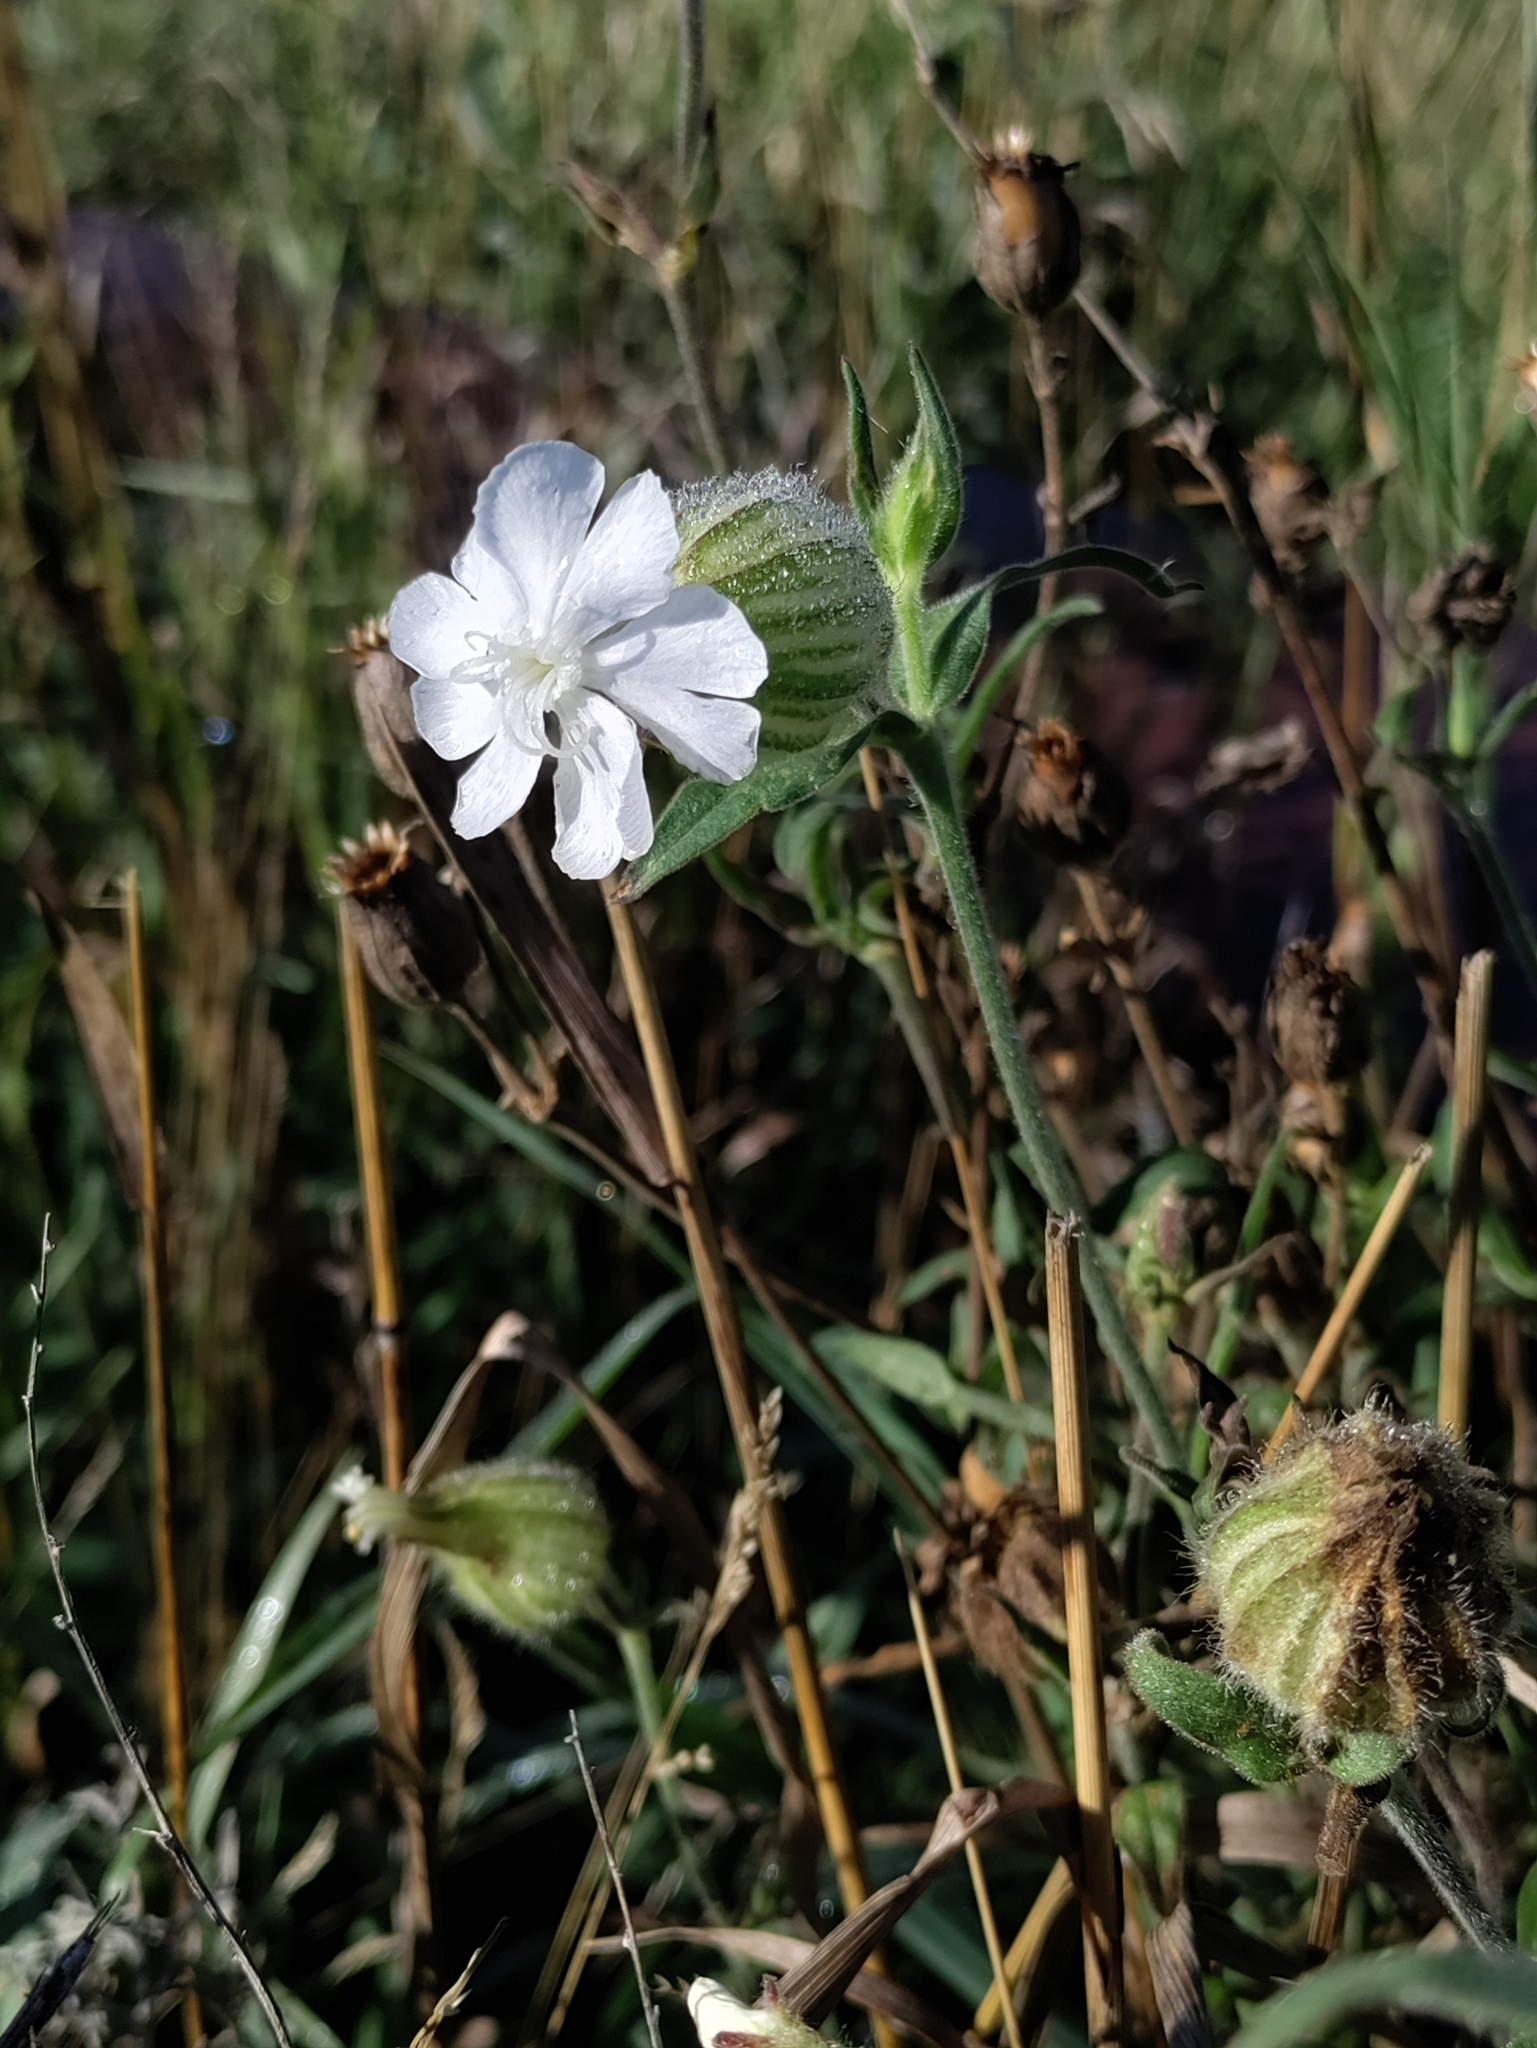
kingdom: Plantae
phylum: Tracheophyta
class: Magnoliopsida
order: Caryophyllales
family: Caryophyllaceae
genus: Silene
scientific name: Silene latifolia
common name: White campion
